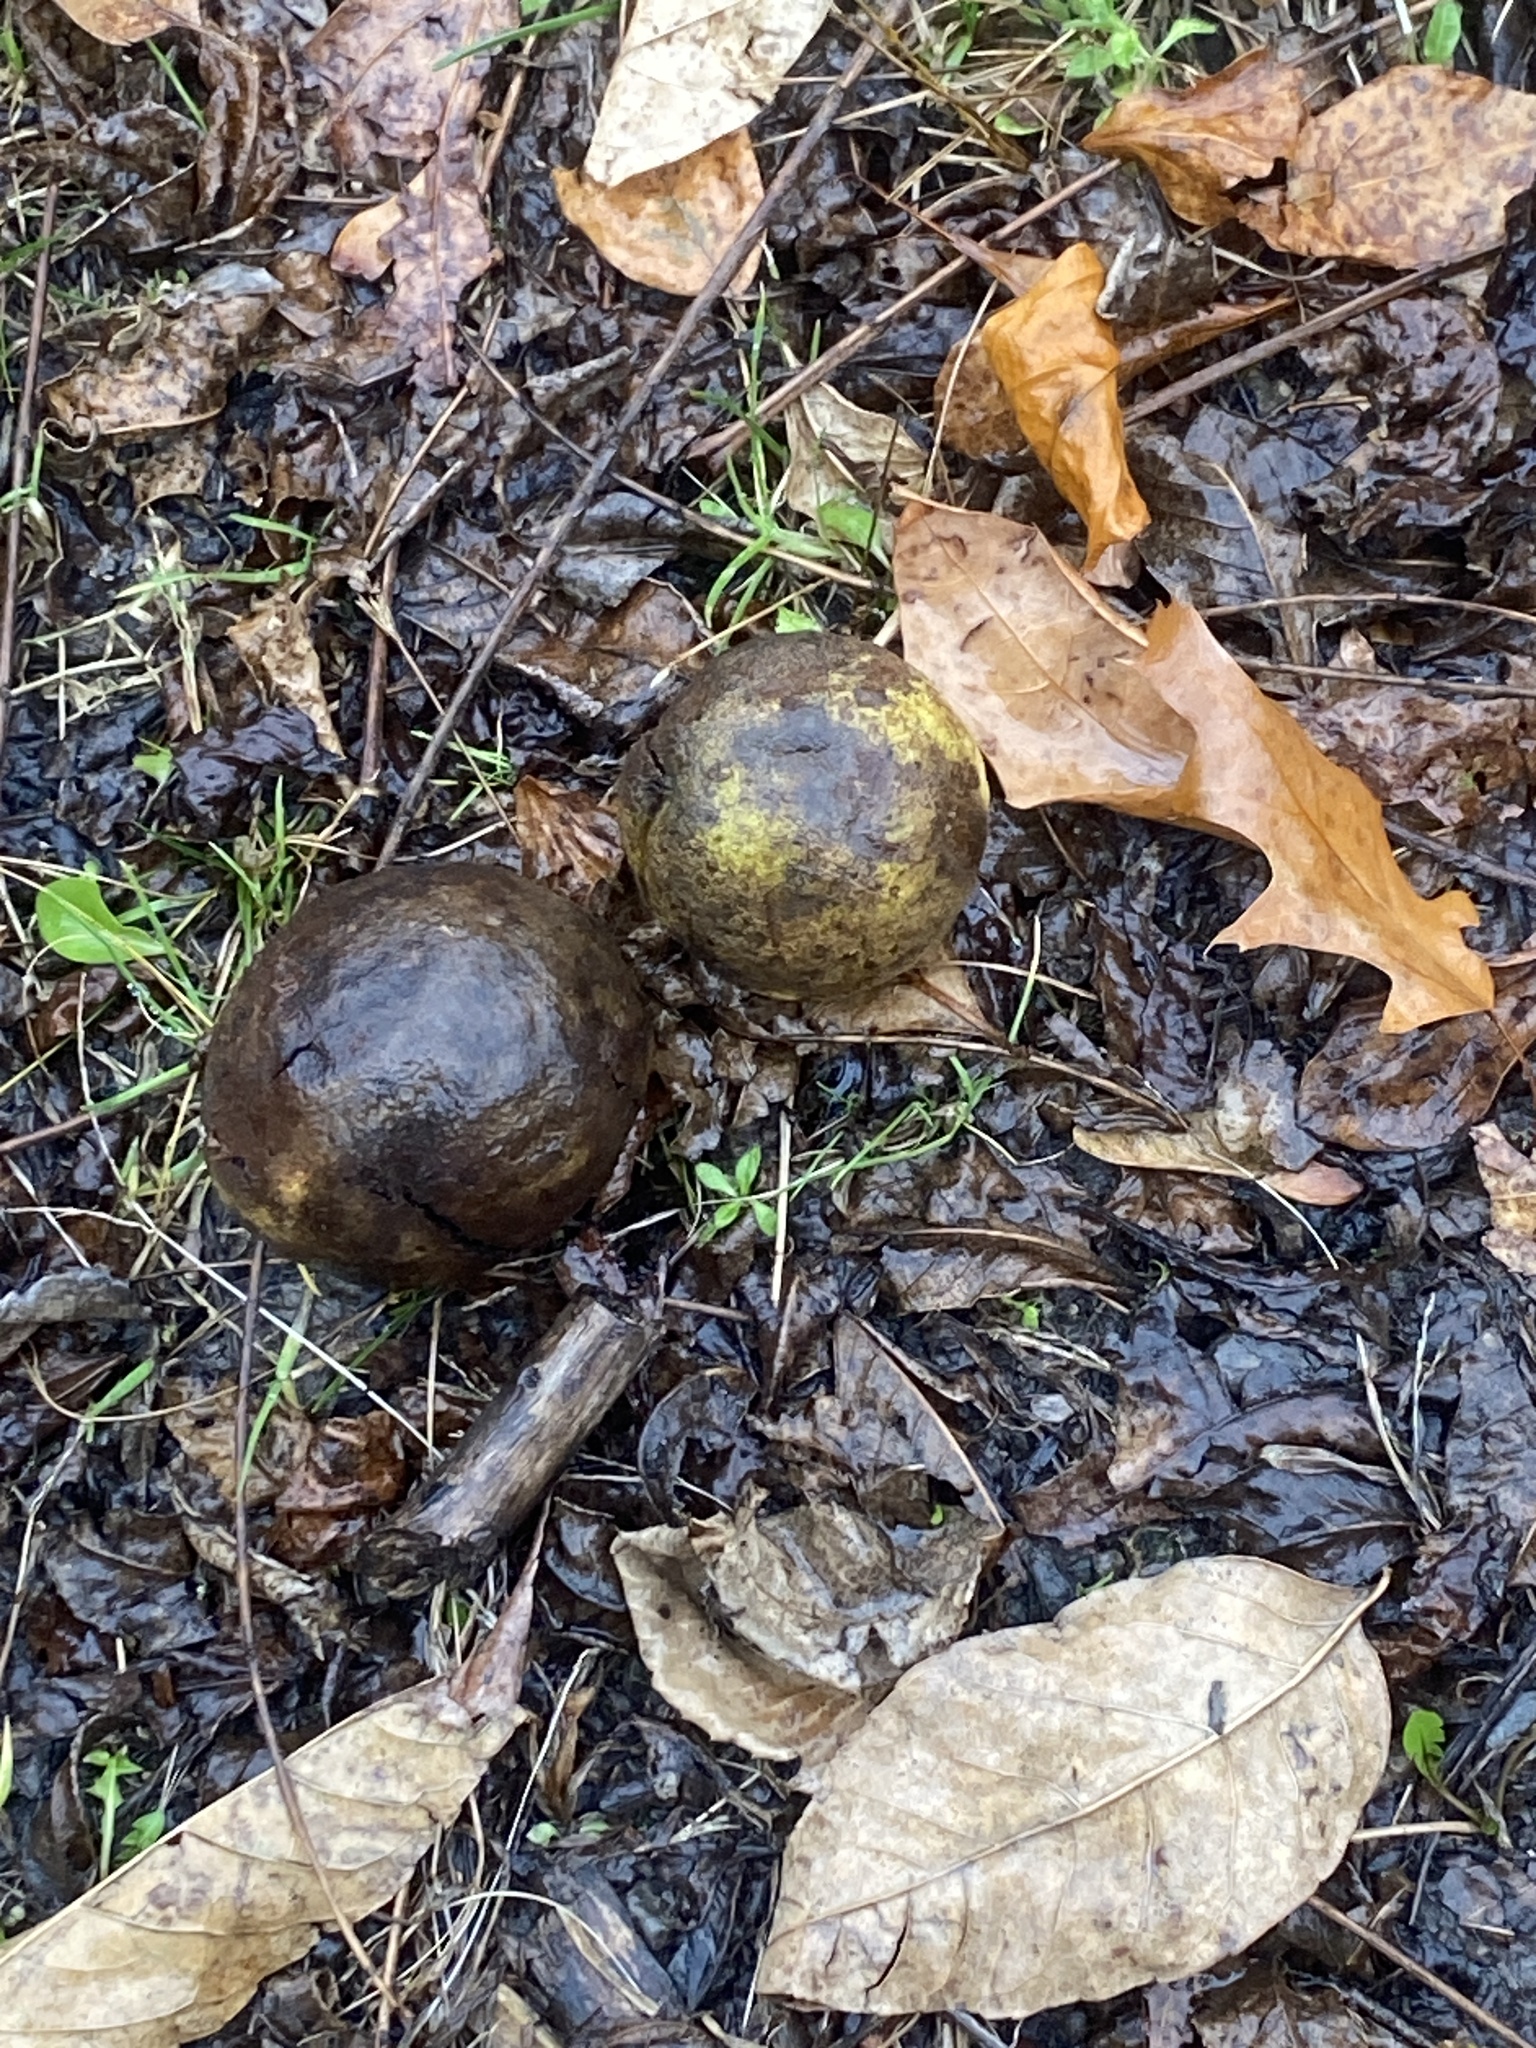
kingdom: Plantae
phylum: Tracheophyta
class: Magnoliopsida
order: Fagales
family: Juglandaceae
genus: Juglans
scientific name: Juglans nigra
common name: Black walnut
